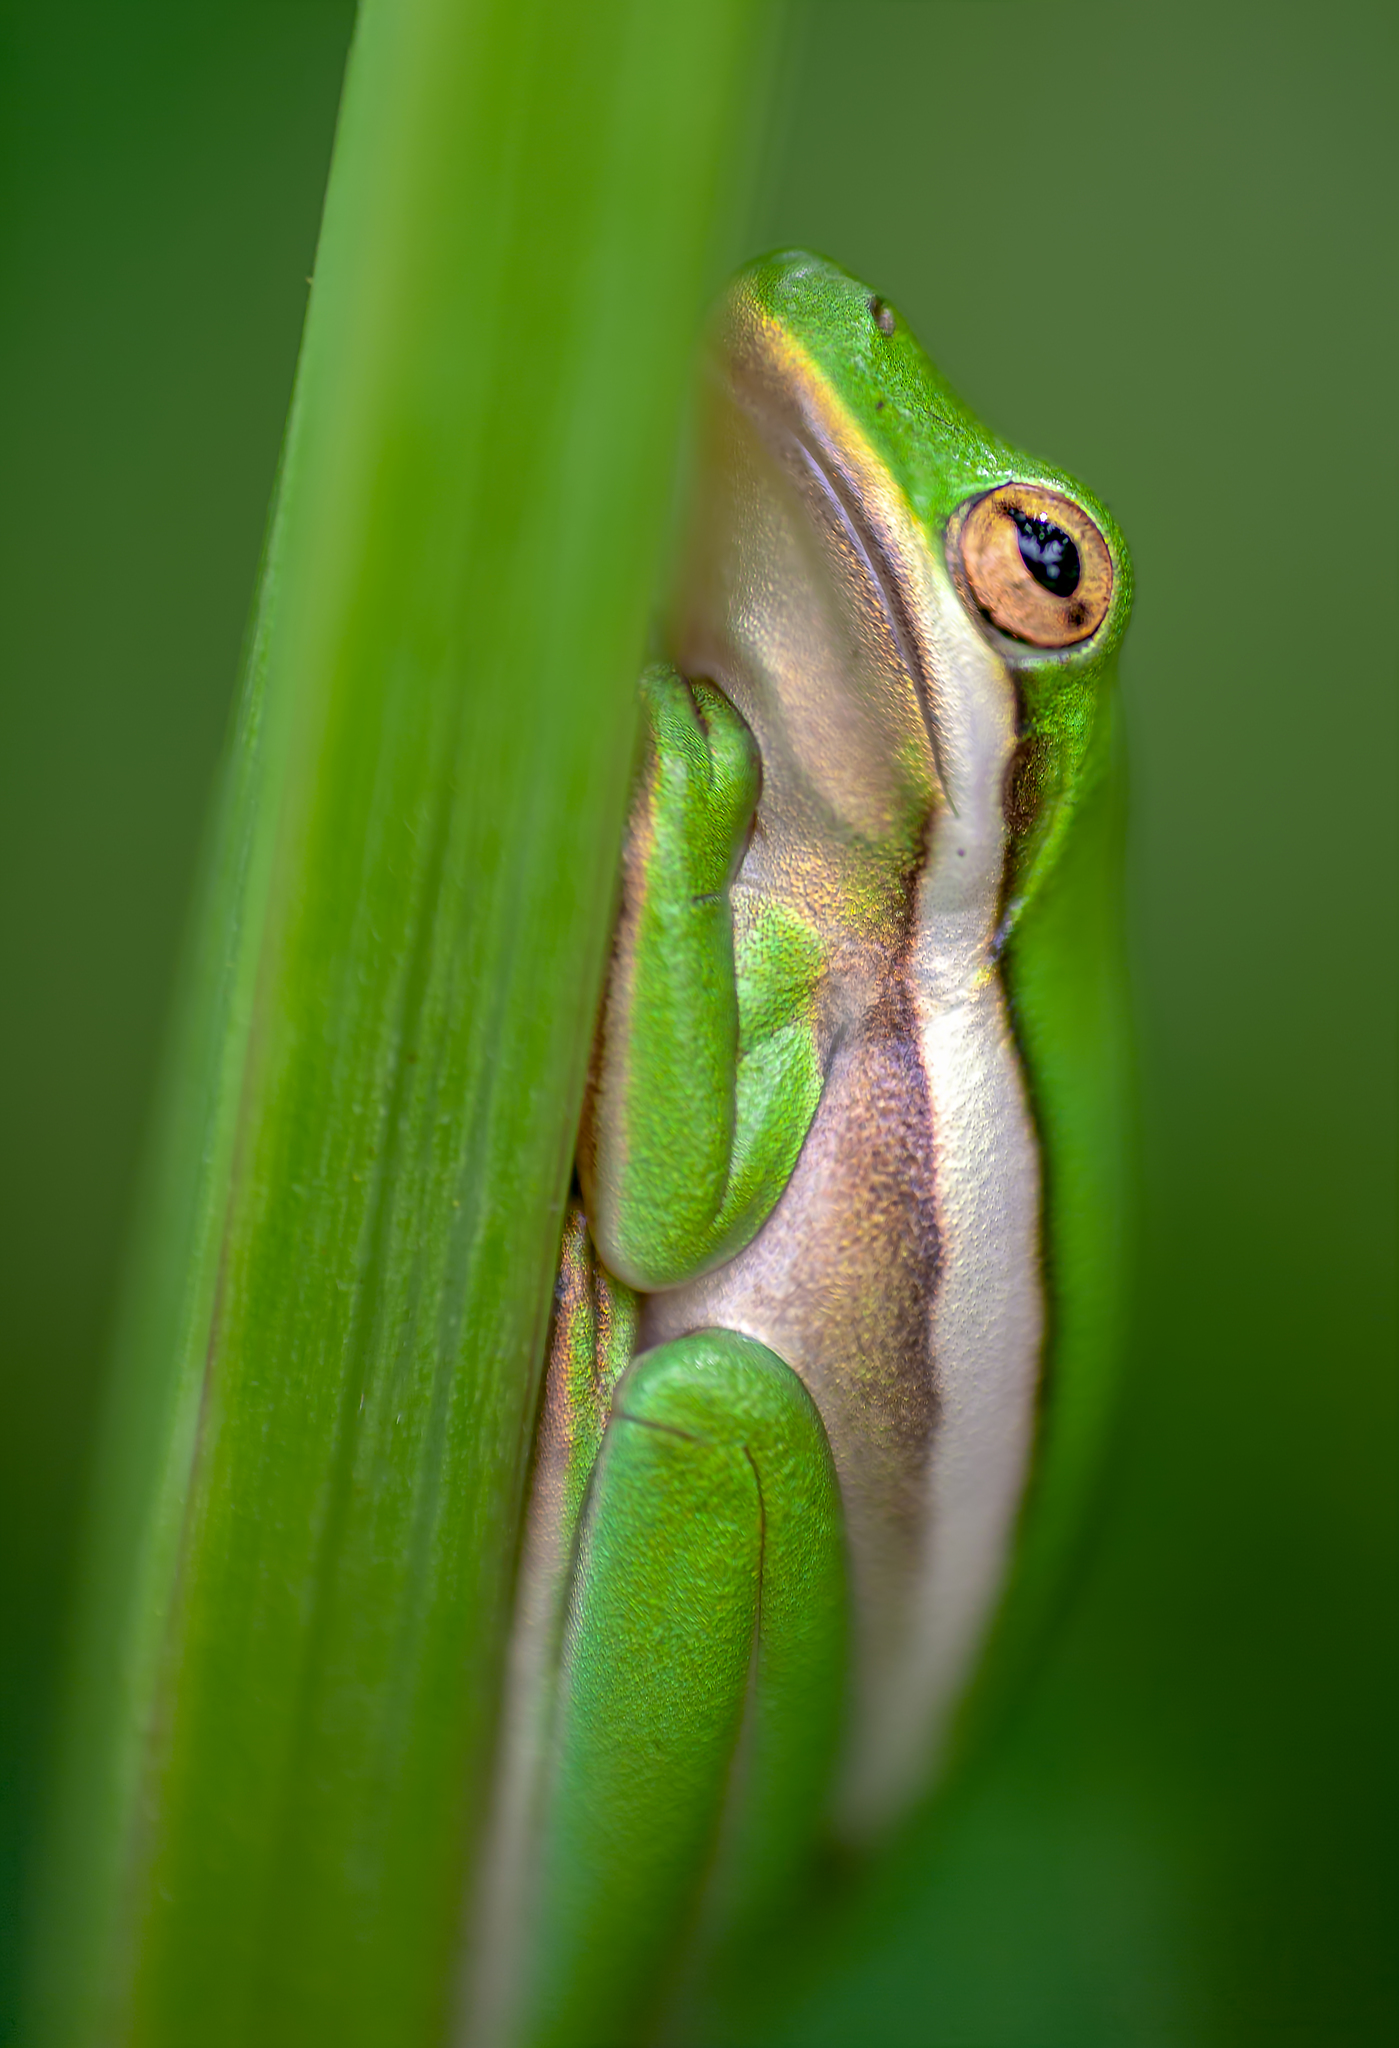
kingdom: Animalia
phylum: Chordata
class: Amphibia
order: Anura
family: Hylidae
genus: Dryophytes
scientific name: Dryophytes cinereus
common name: Green treefrog
